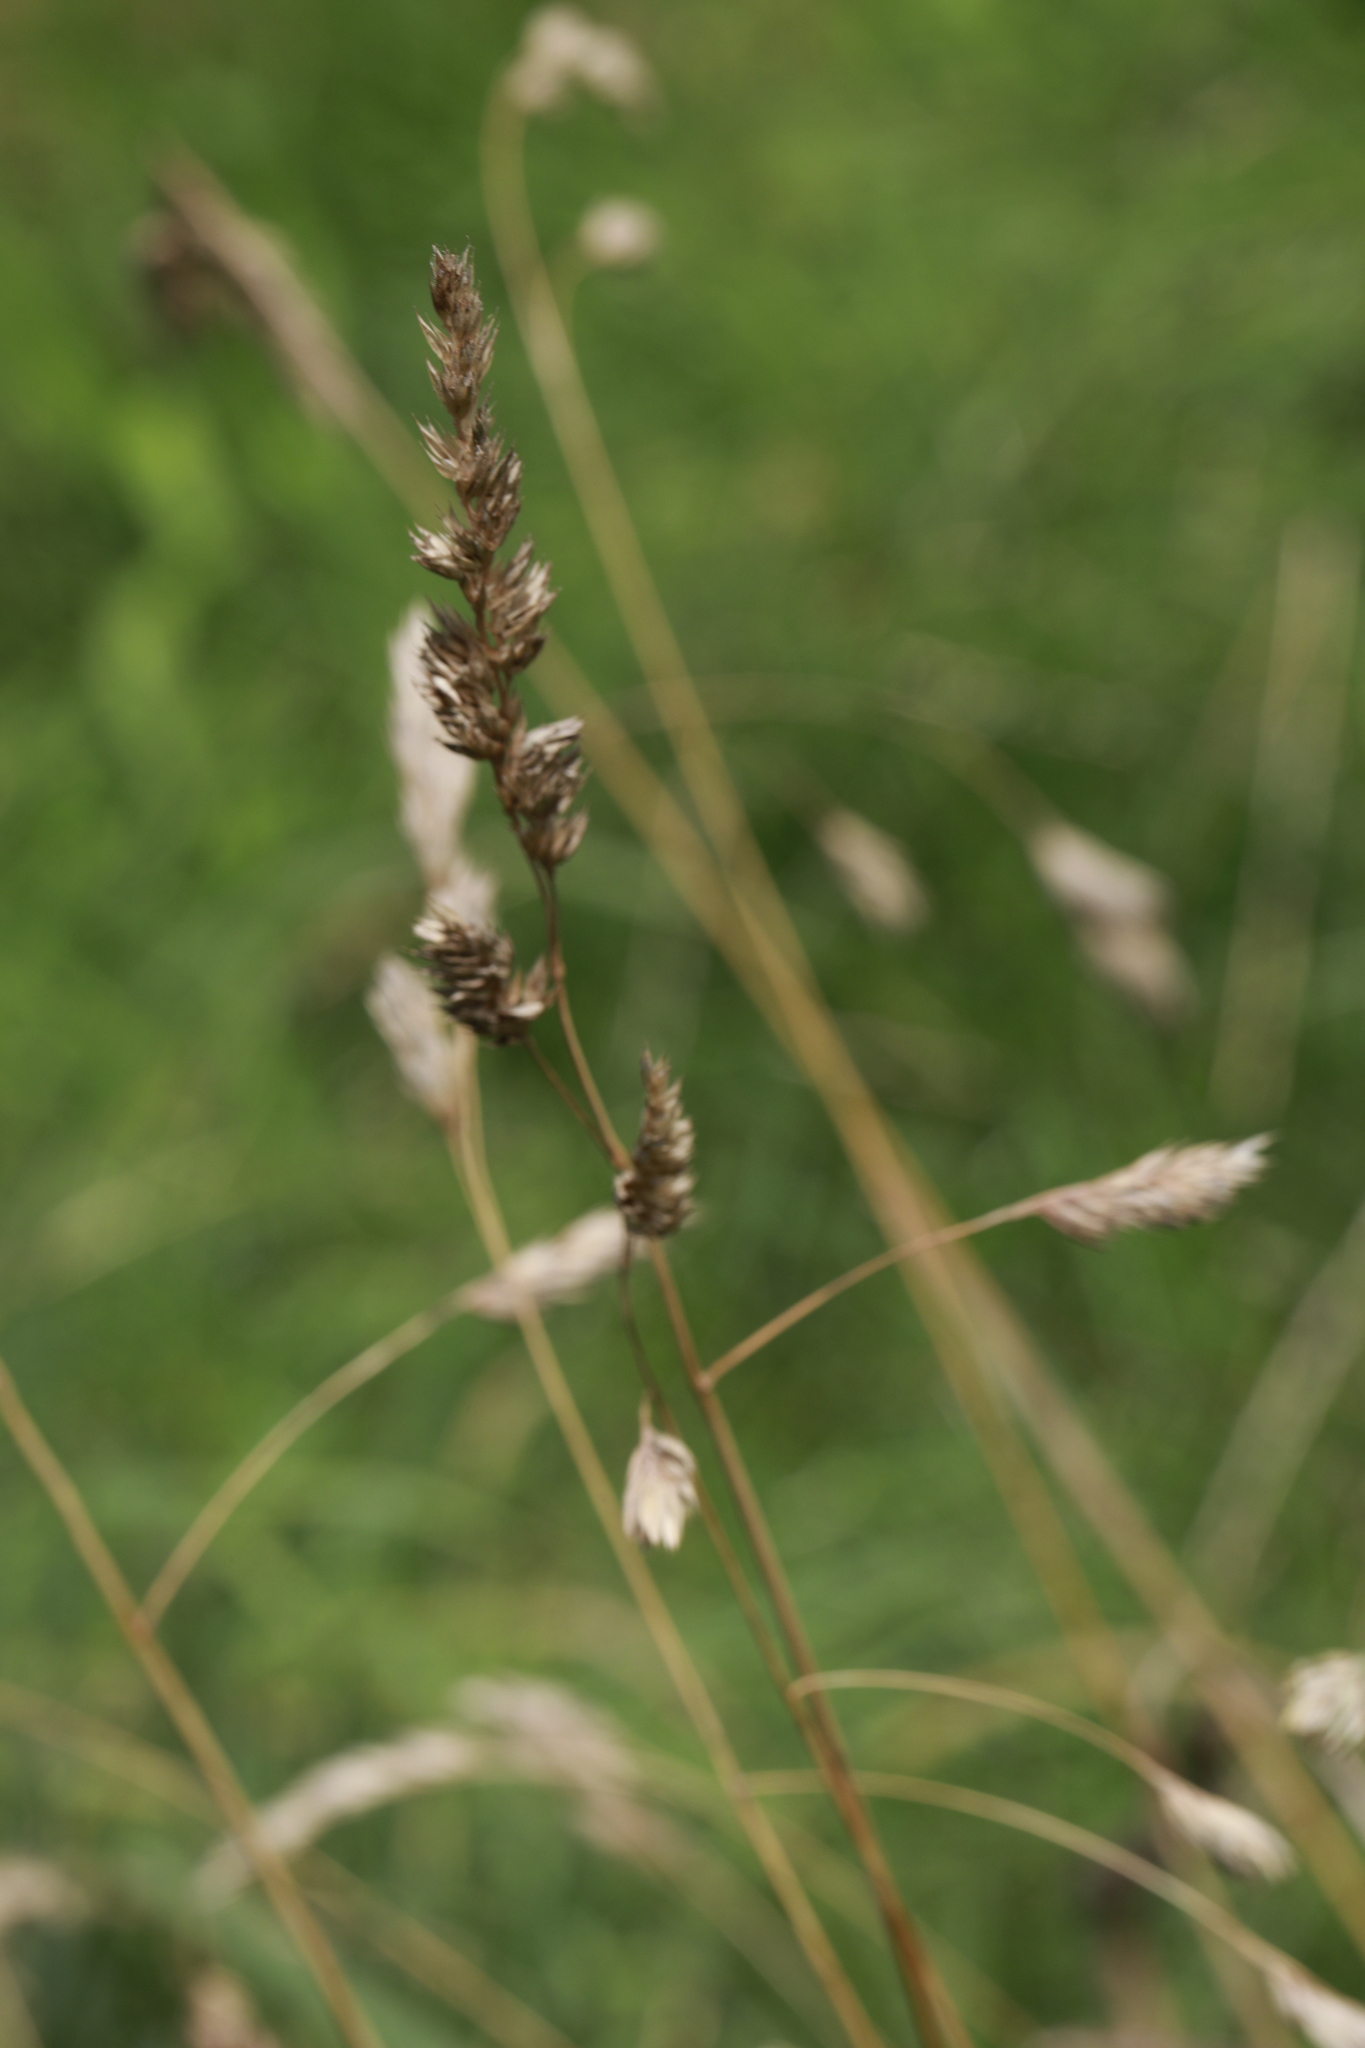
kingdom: Plantae
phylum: Tracheophyta
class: Liliopsida
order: Poales
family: Poaceae
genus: Dactylis
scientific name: Dactylis glomerata
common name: Orchardgrass
